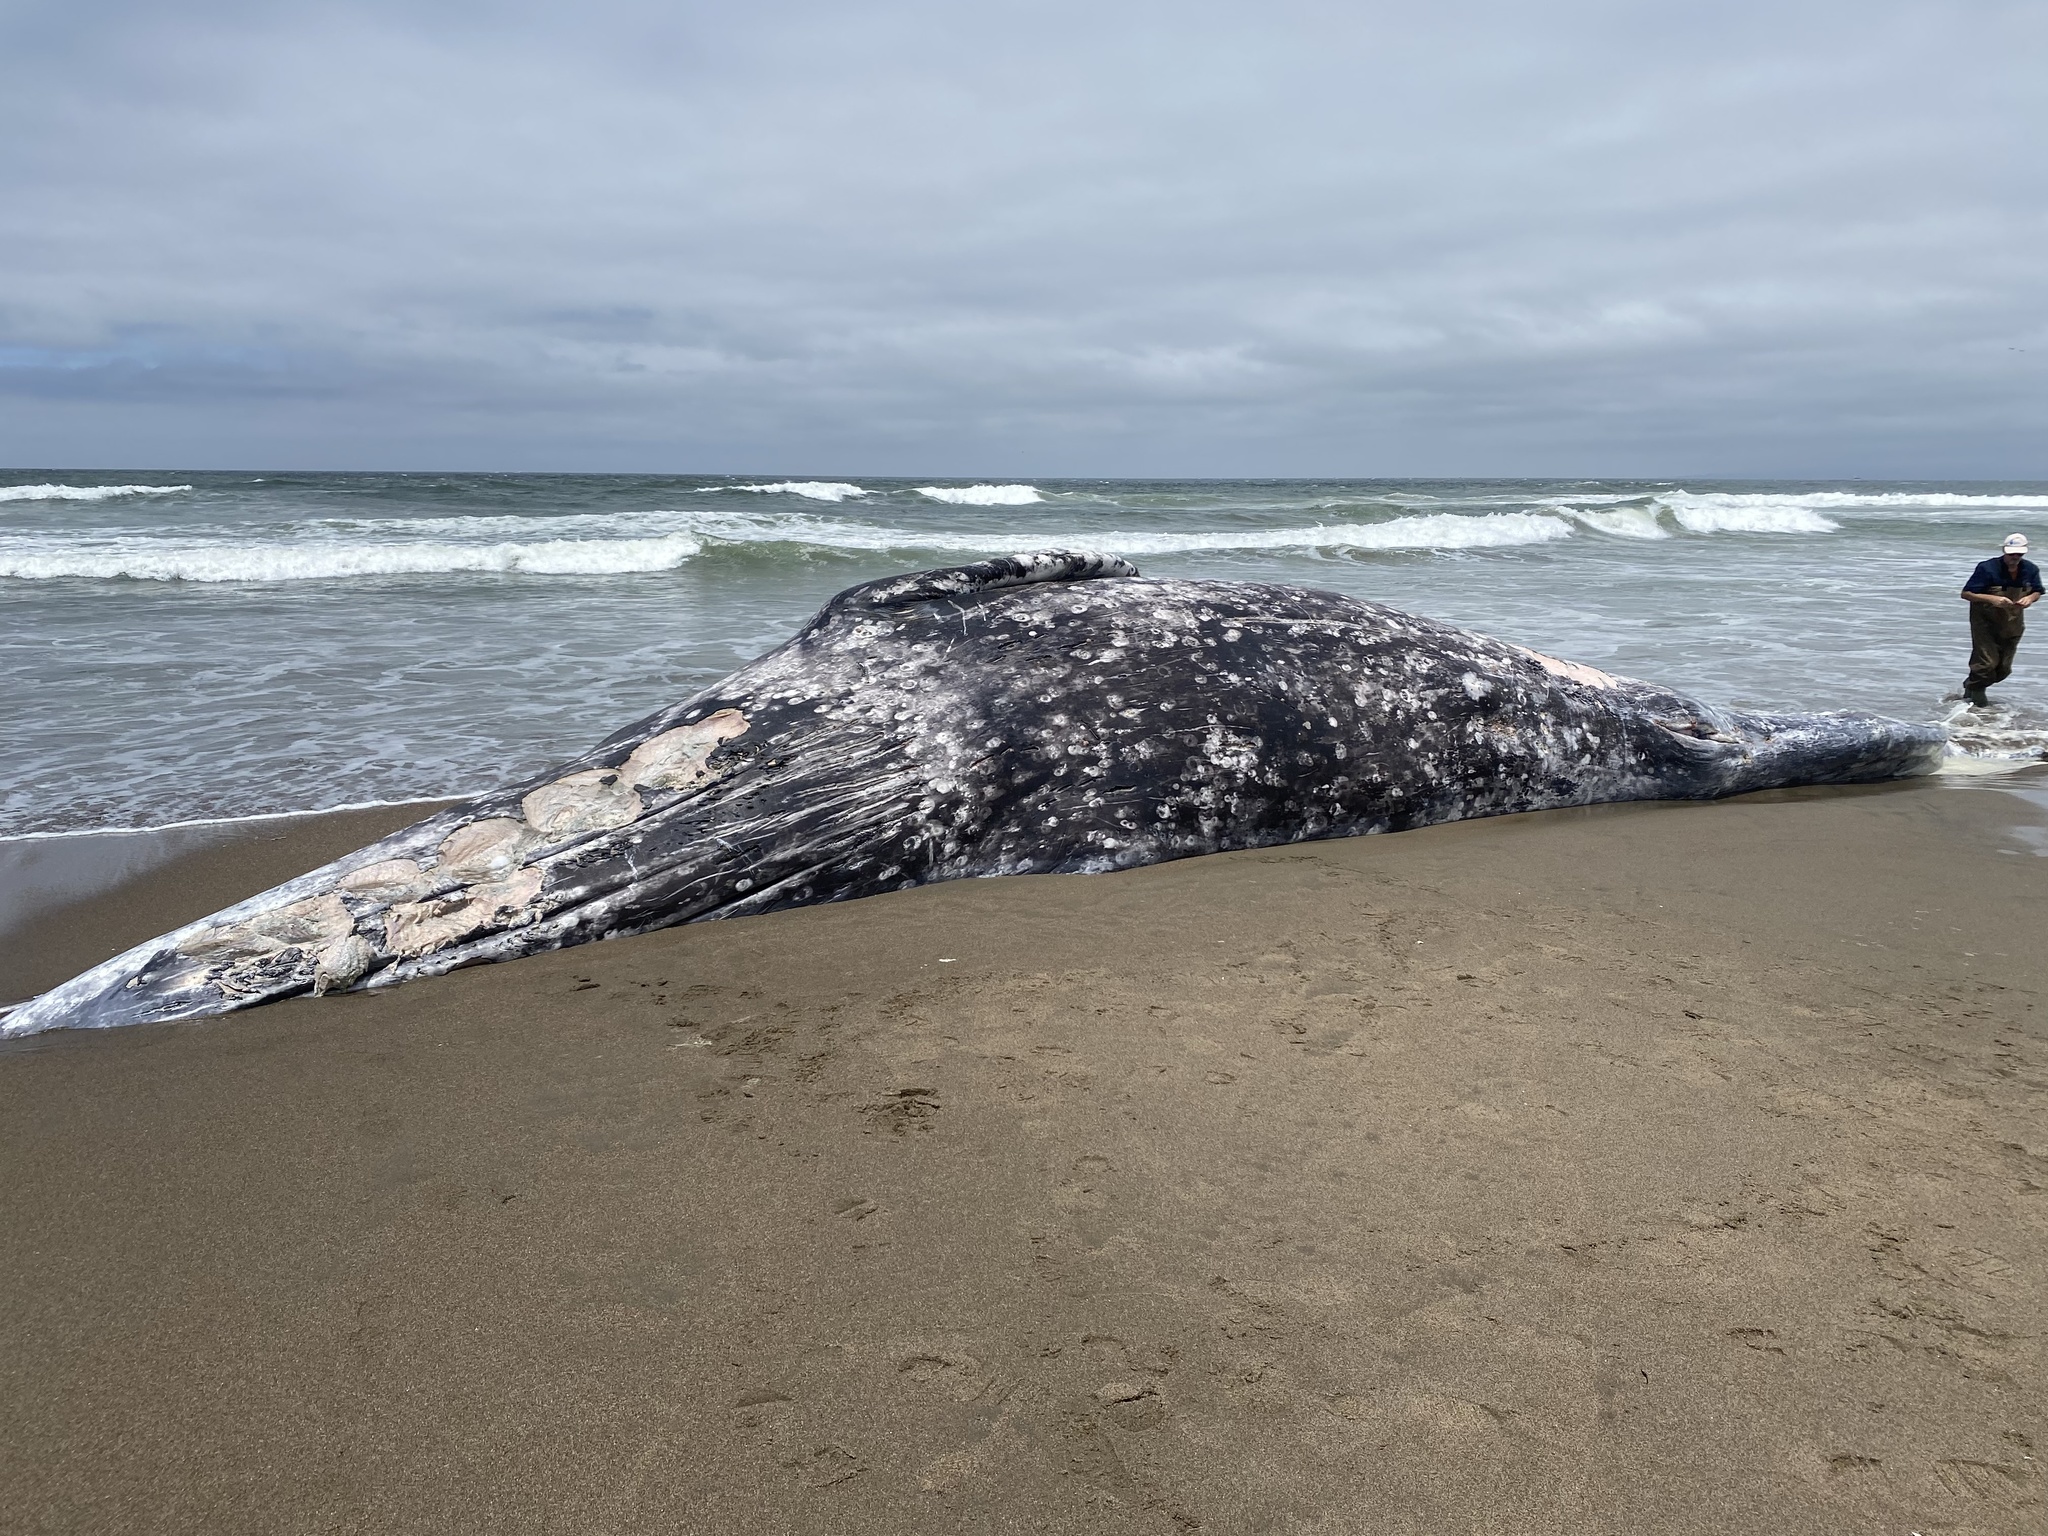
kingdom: Animalia
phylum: Chordata
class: Mammalia
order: Cetacea
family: Eschrichtiidae
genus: Eschrichtius
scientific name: Eschrichtius robustus
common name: Gray whale
